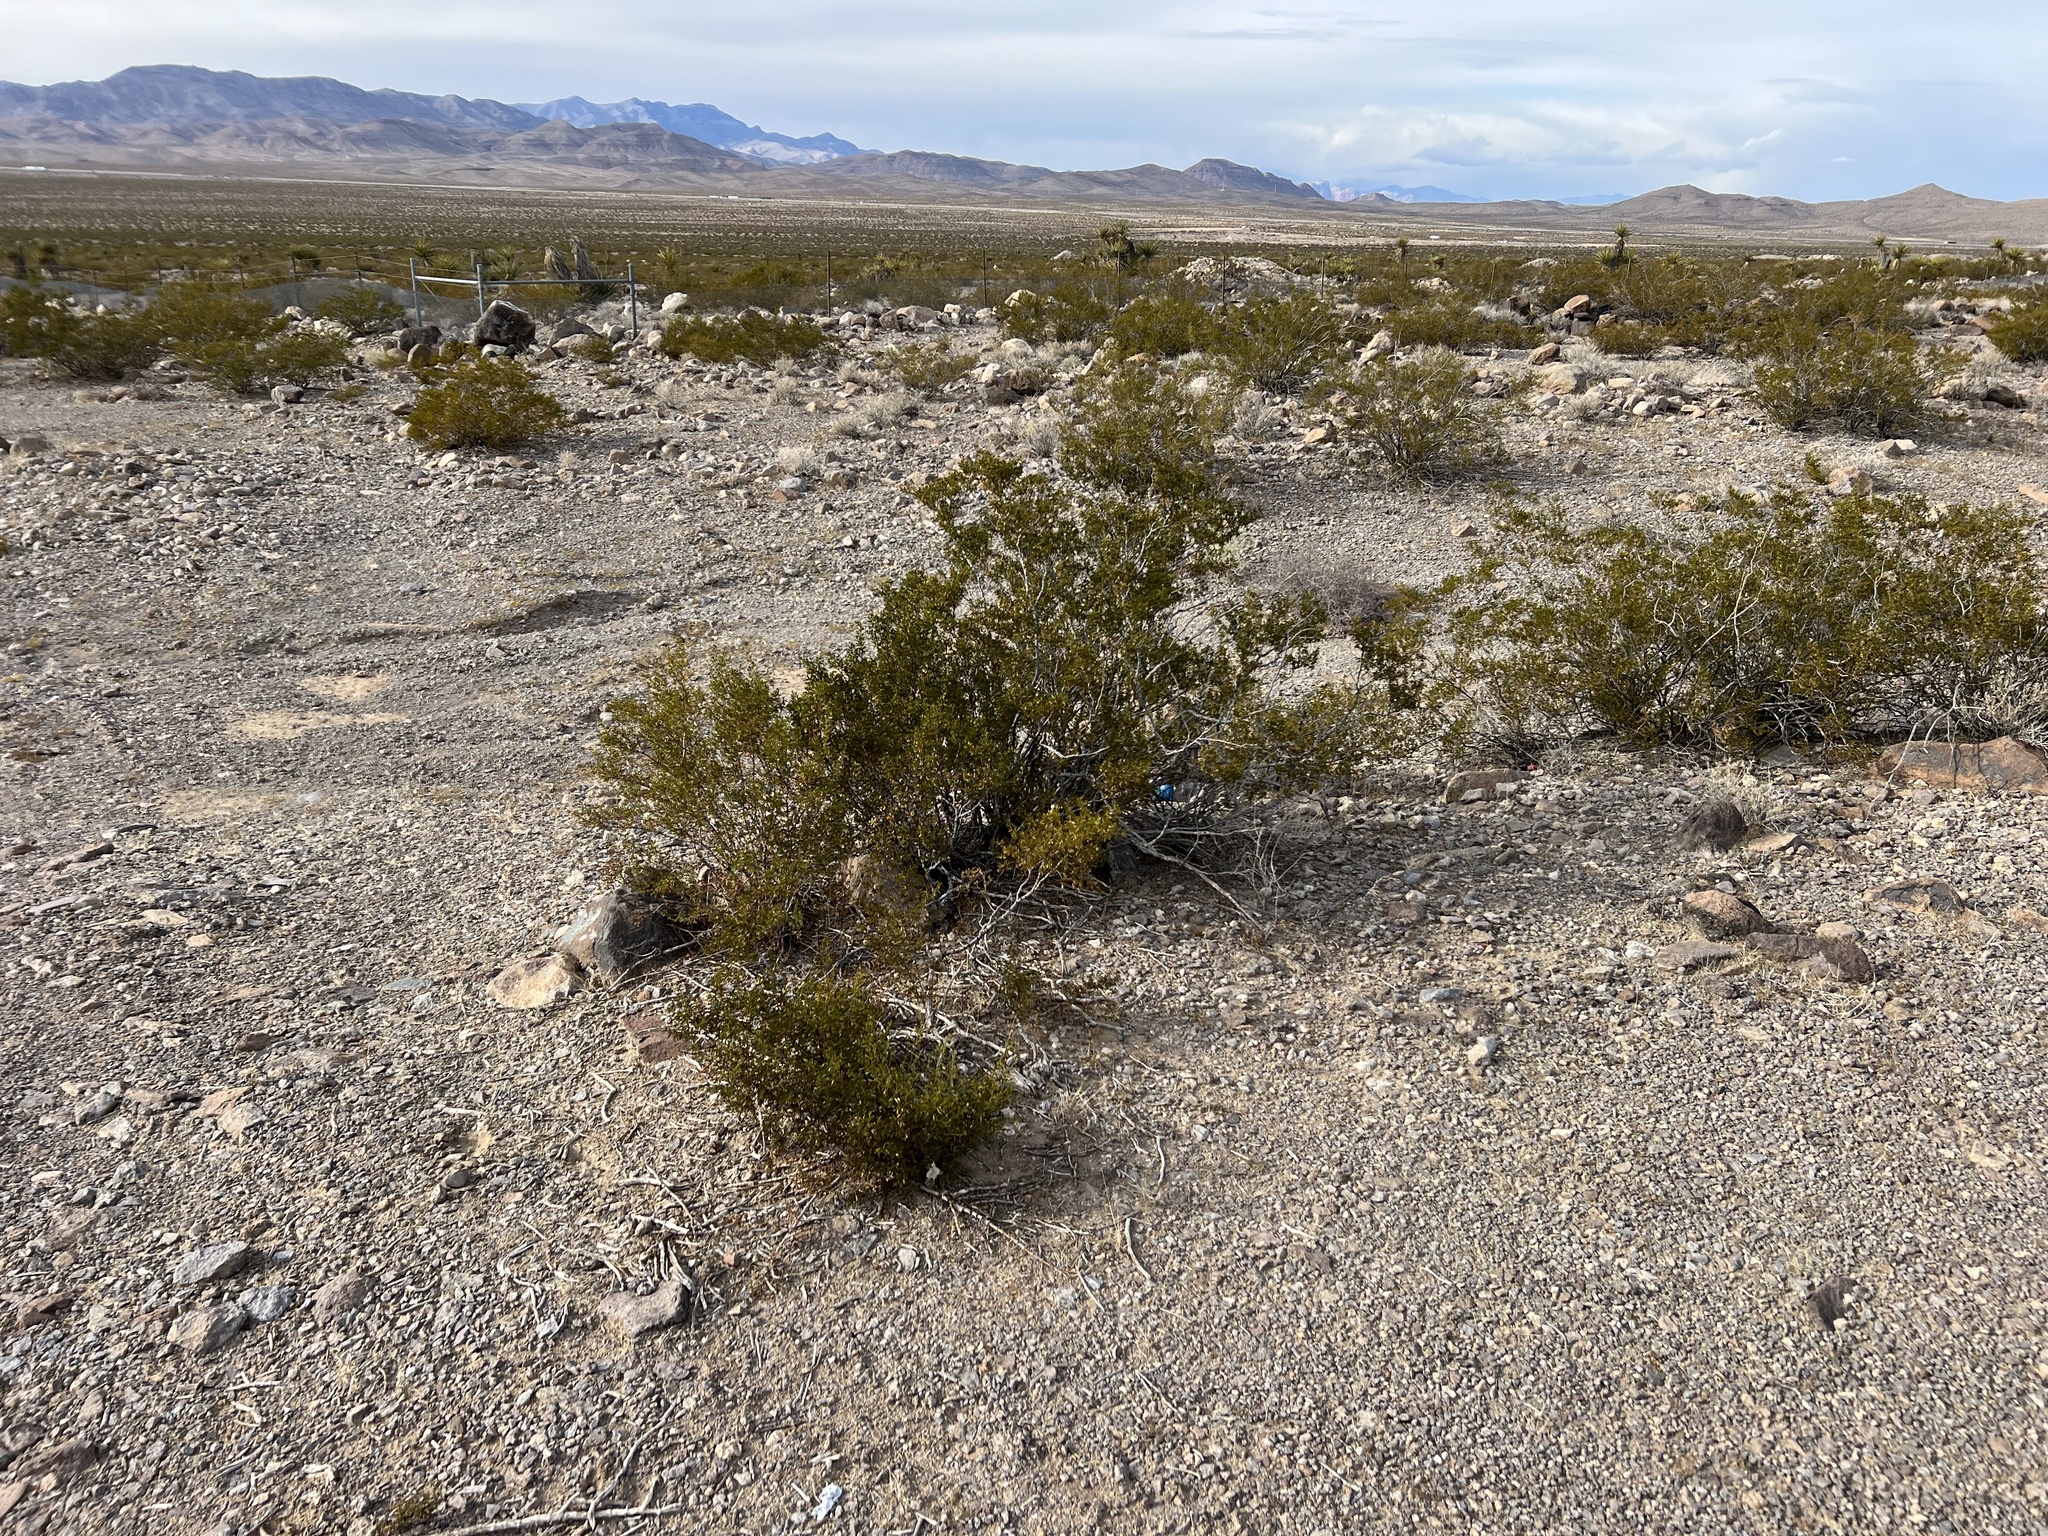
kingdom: Plantae
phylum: Tracheophyta
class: Magnoliopsida
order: Zygophyllales
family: Zygophyllaceae
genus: Larrea
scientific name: Larrea tridentata
